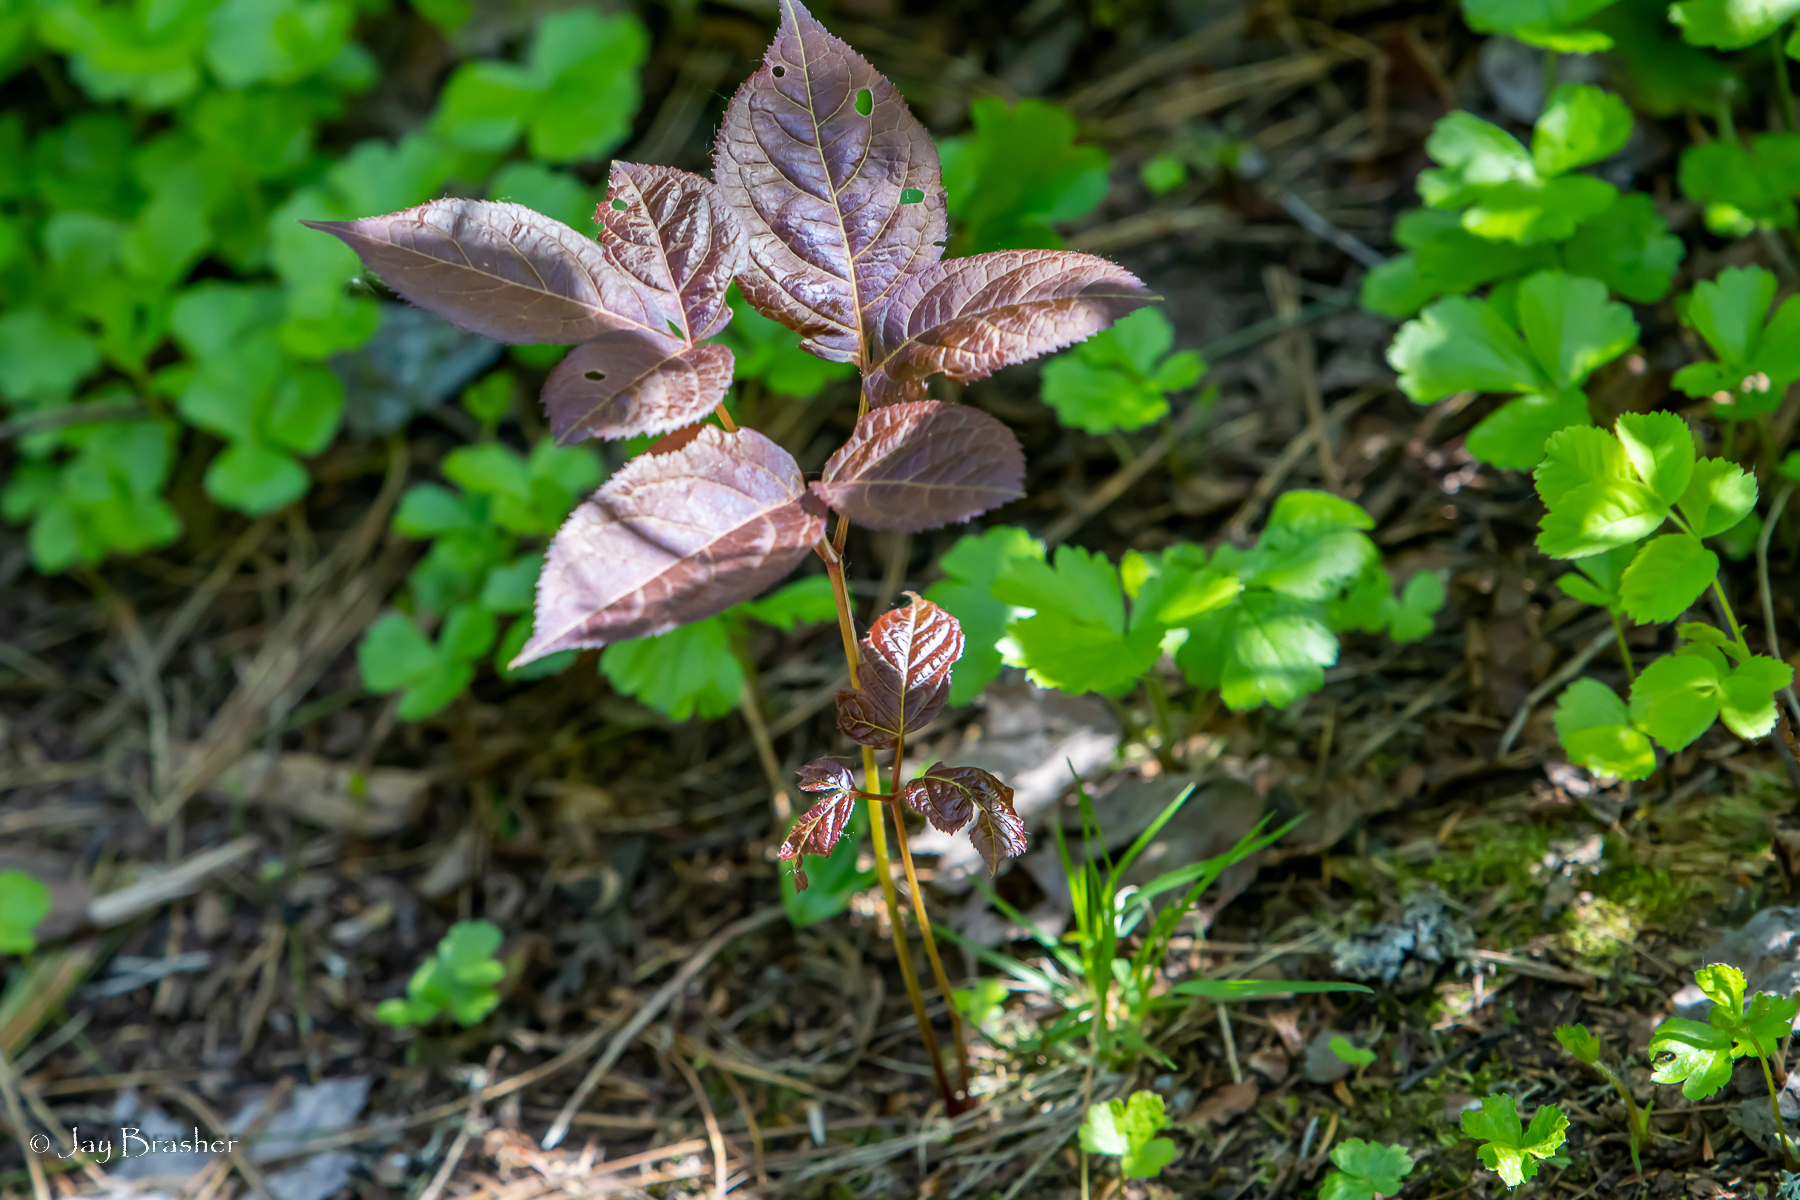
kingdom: Plantae
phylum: Tracheophyta
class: Magnoliopsida
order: Apiales
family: Araliaceae
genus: Aralia
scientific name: Aralia nudicaulis
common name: Wild sarsaparilla
